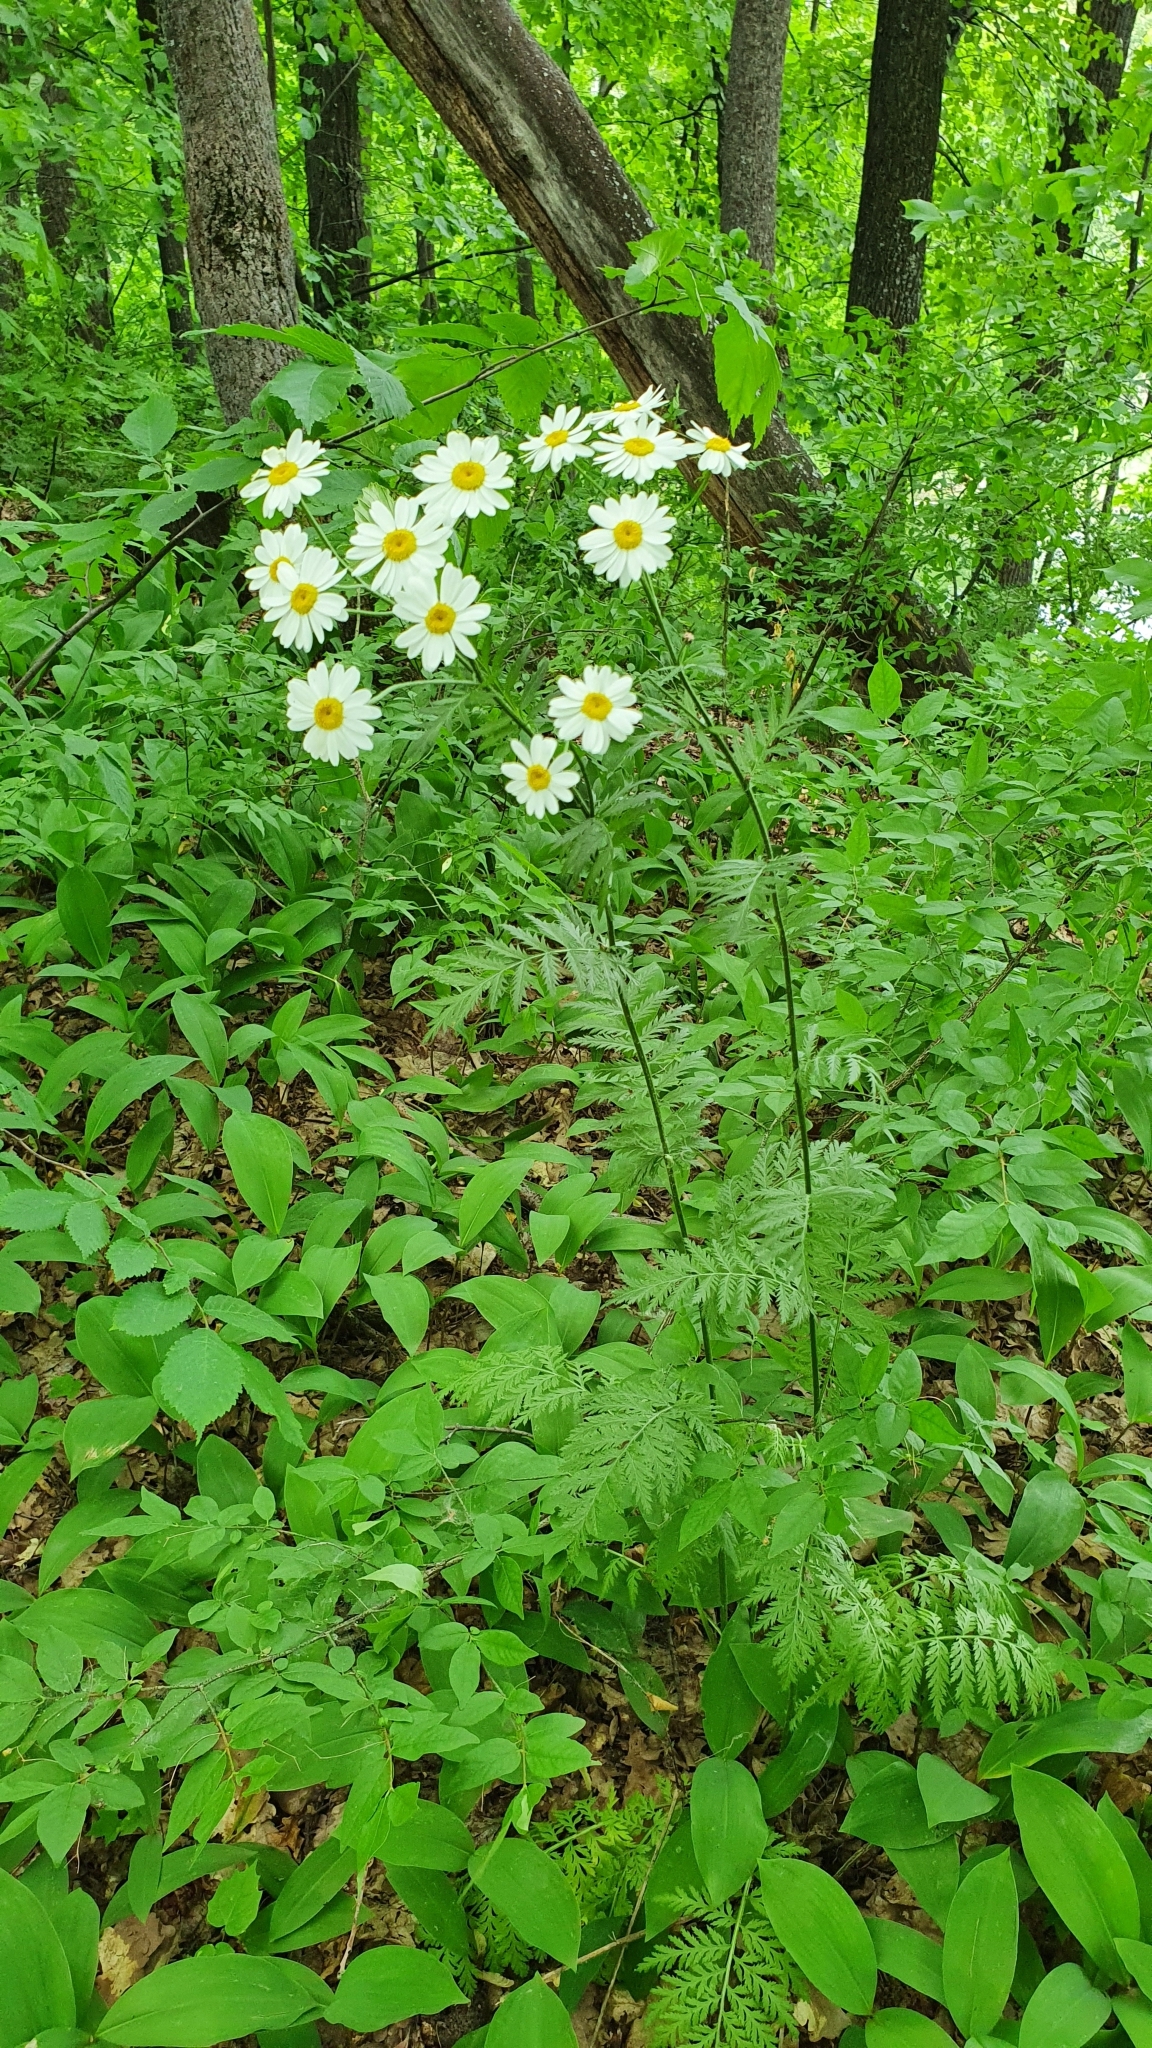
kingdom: Plantae
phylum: Tracheophyta
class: Magnoliopsida
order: Asterales
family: Asteraceae
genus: Tanacetum
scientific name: Tanacetum corymbosum
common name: Scentless feverfew
